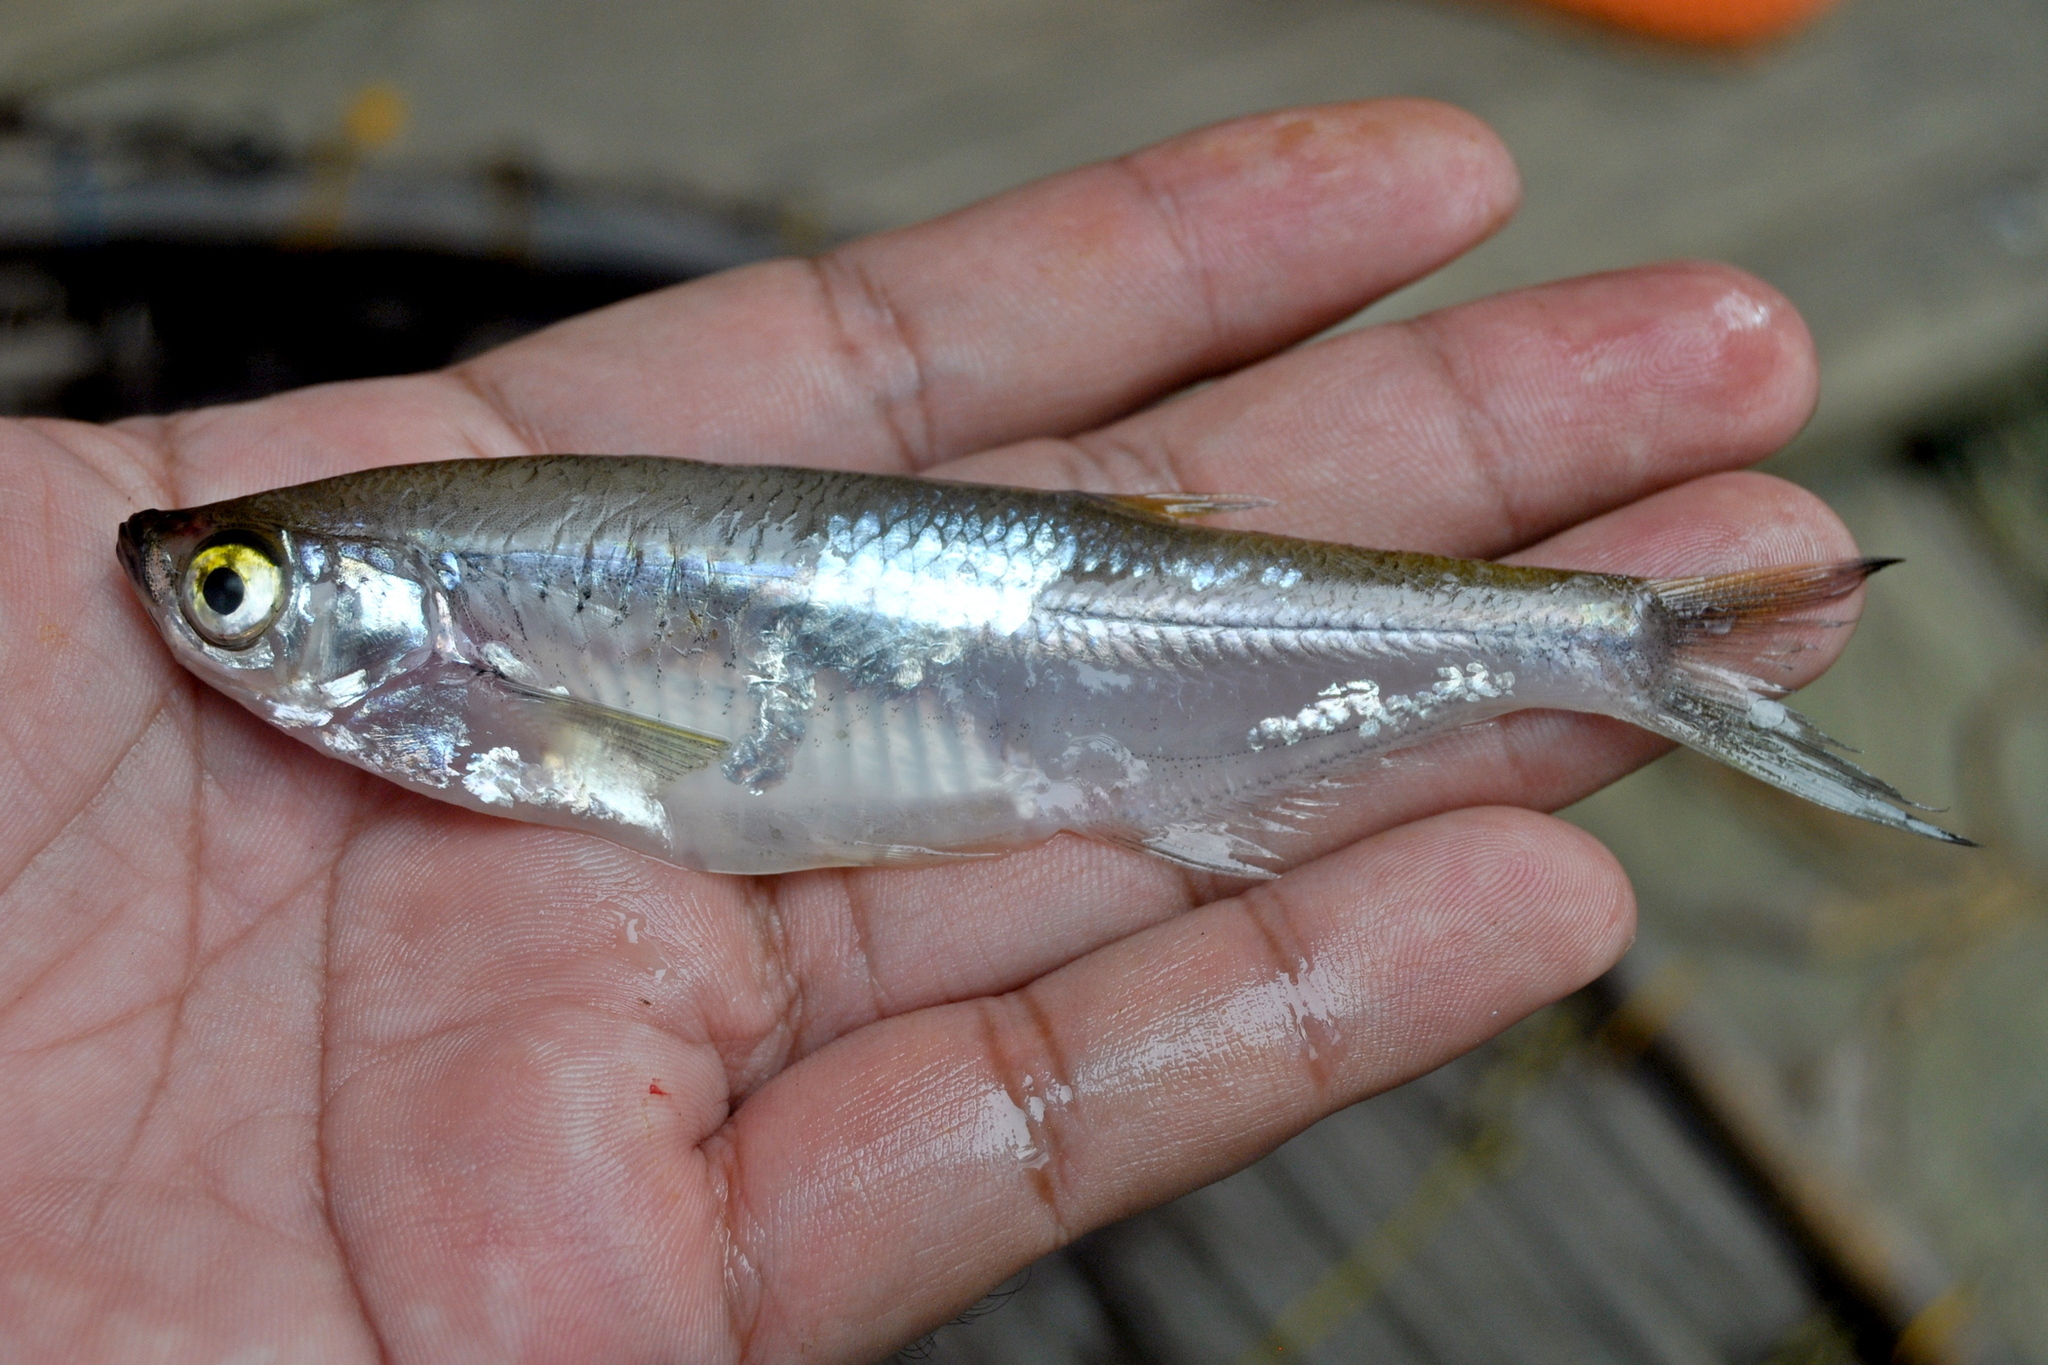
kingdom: Animalia
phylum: Chordata
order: Cypriniformes
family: Cyprinidae
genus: Oxygaster
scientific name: Oxygaster anomalura
